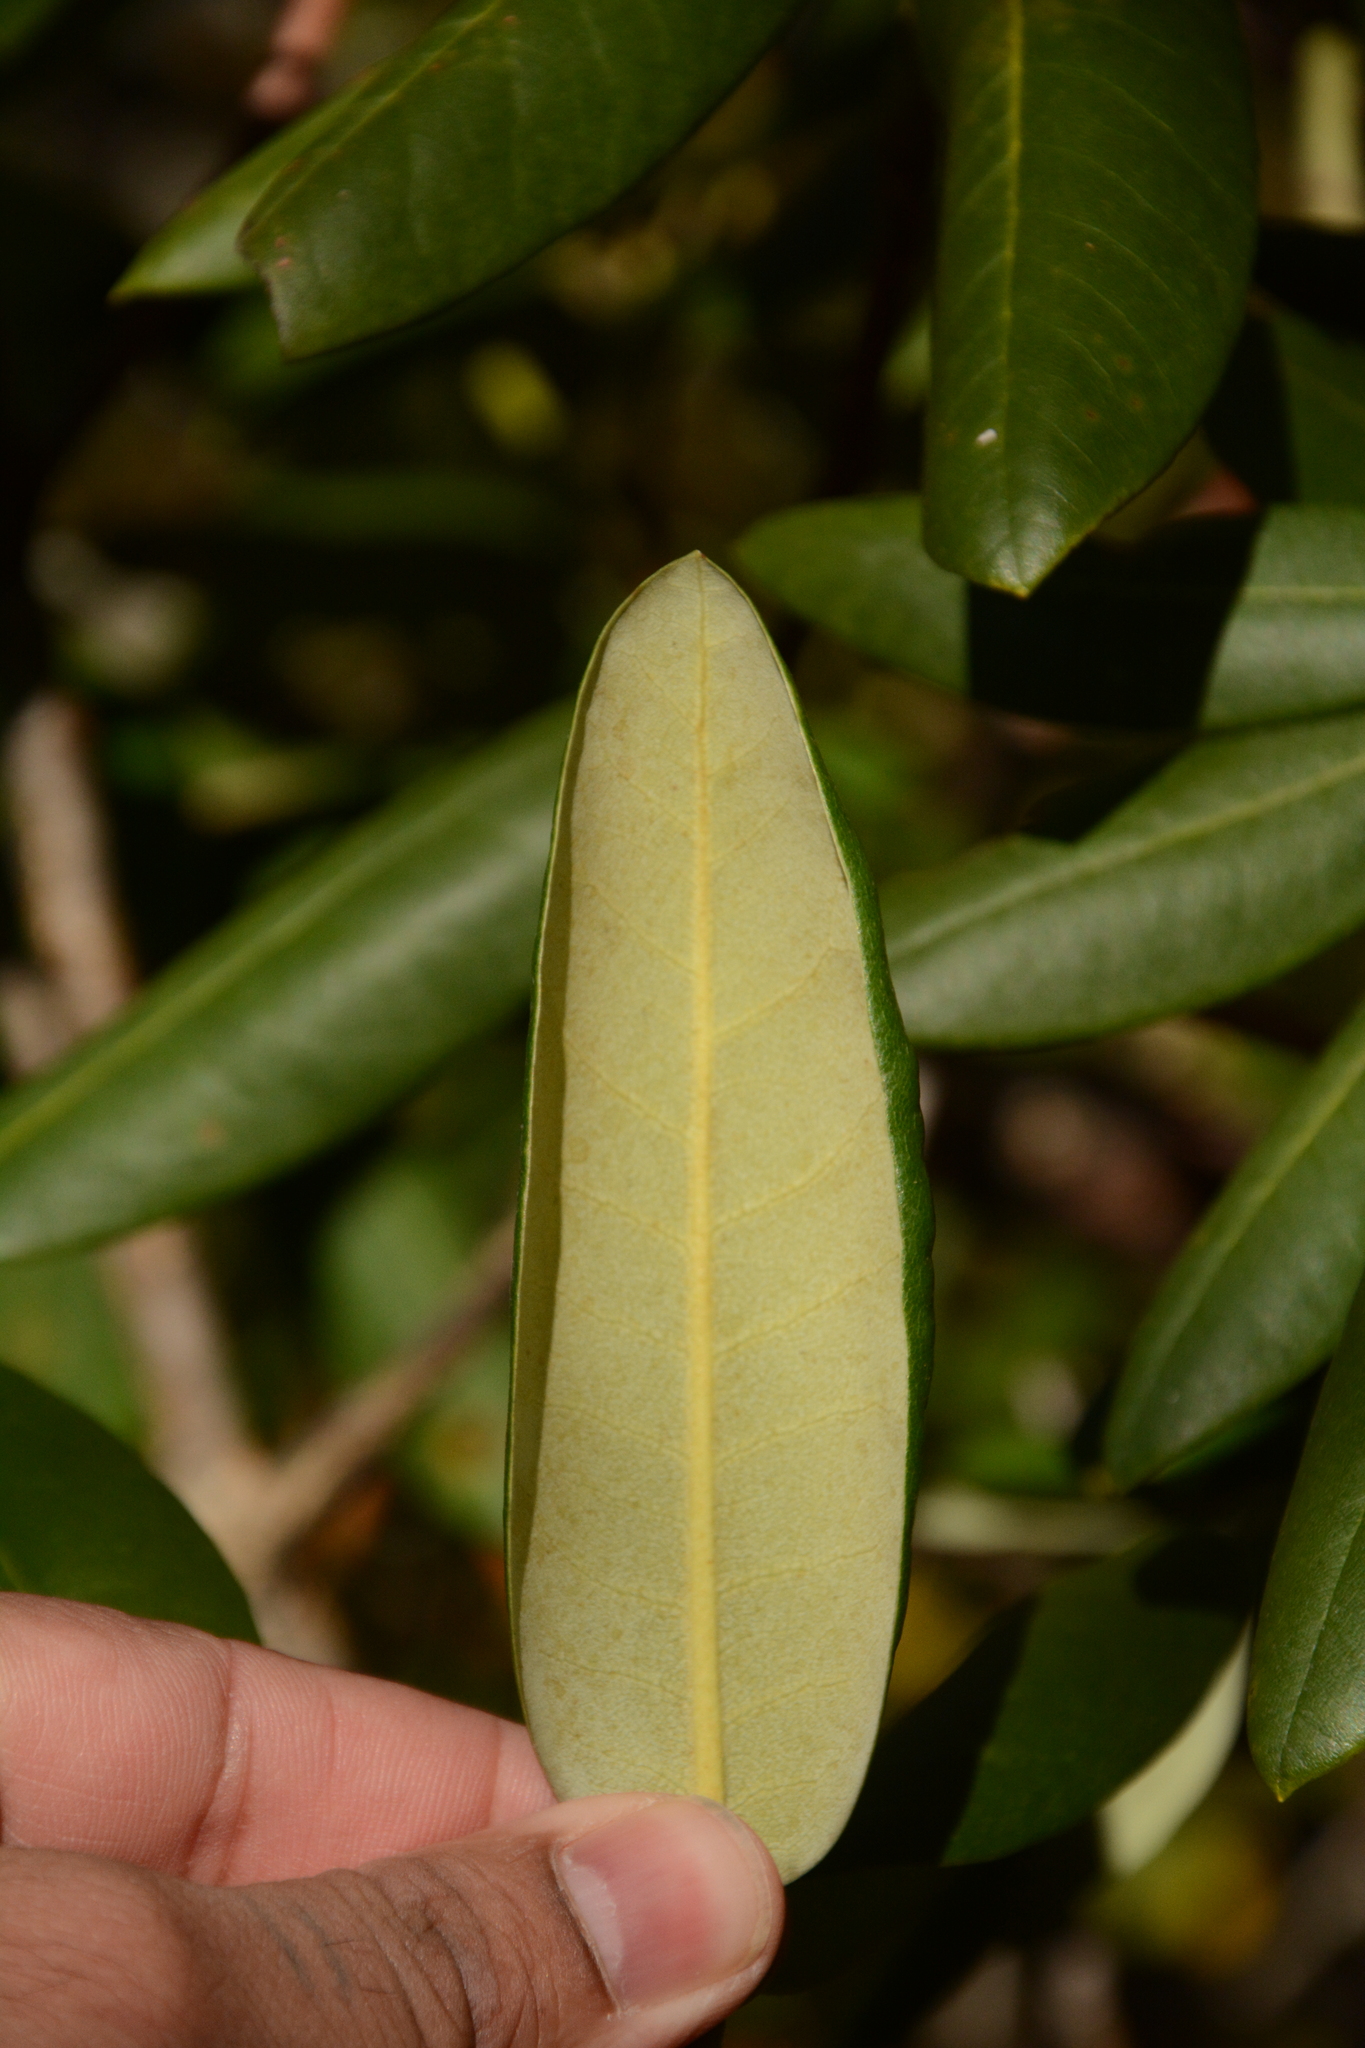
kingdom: Plantae
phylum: Tracheophyta
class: Magnoliopsida
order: Ericales
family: Ericaceae
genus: Rhododendron
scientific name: Rhododendron catawbiense
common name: Catawba rhododendron
